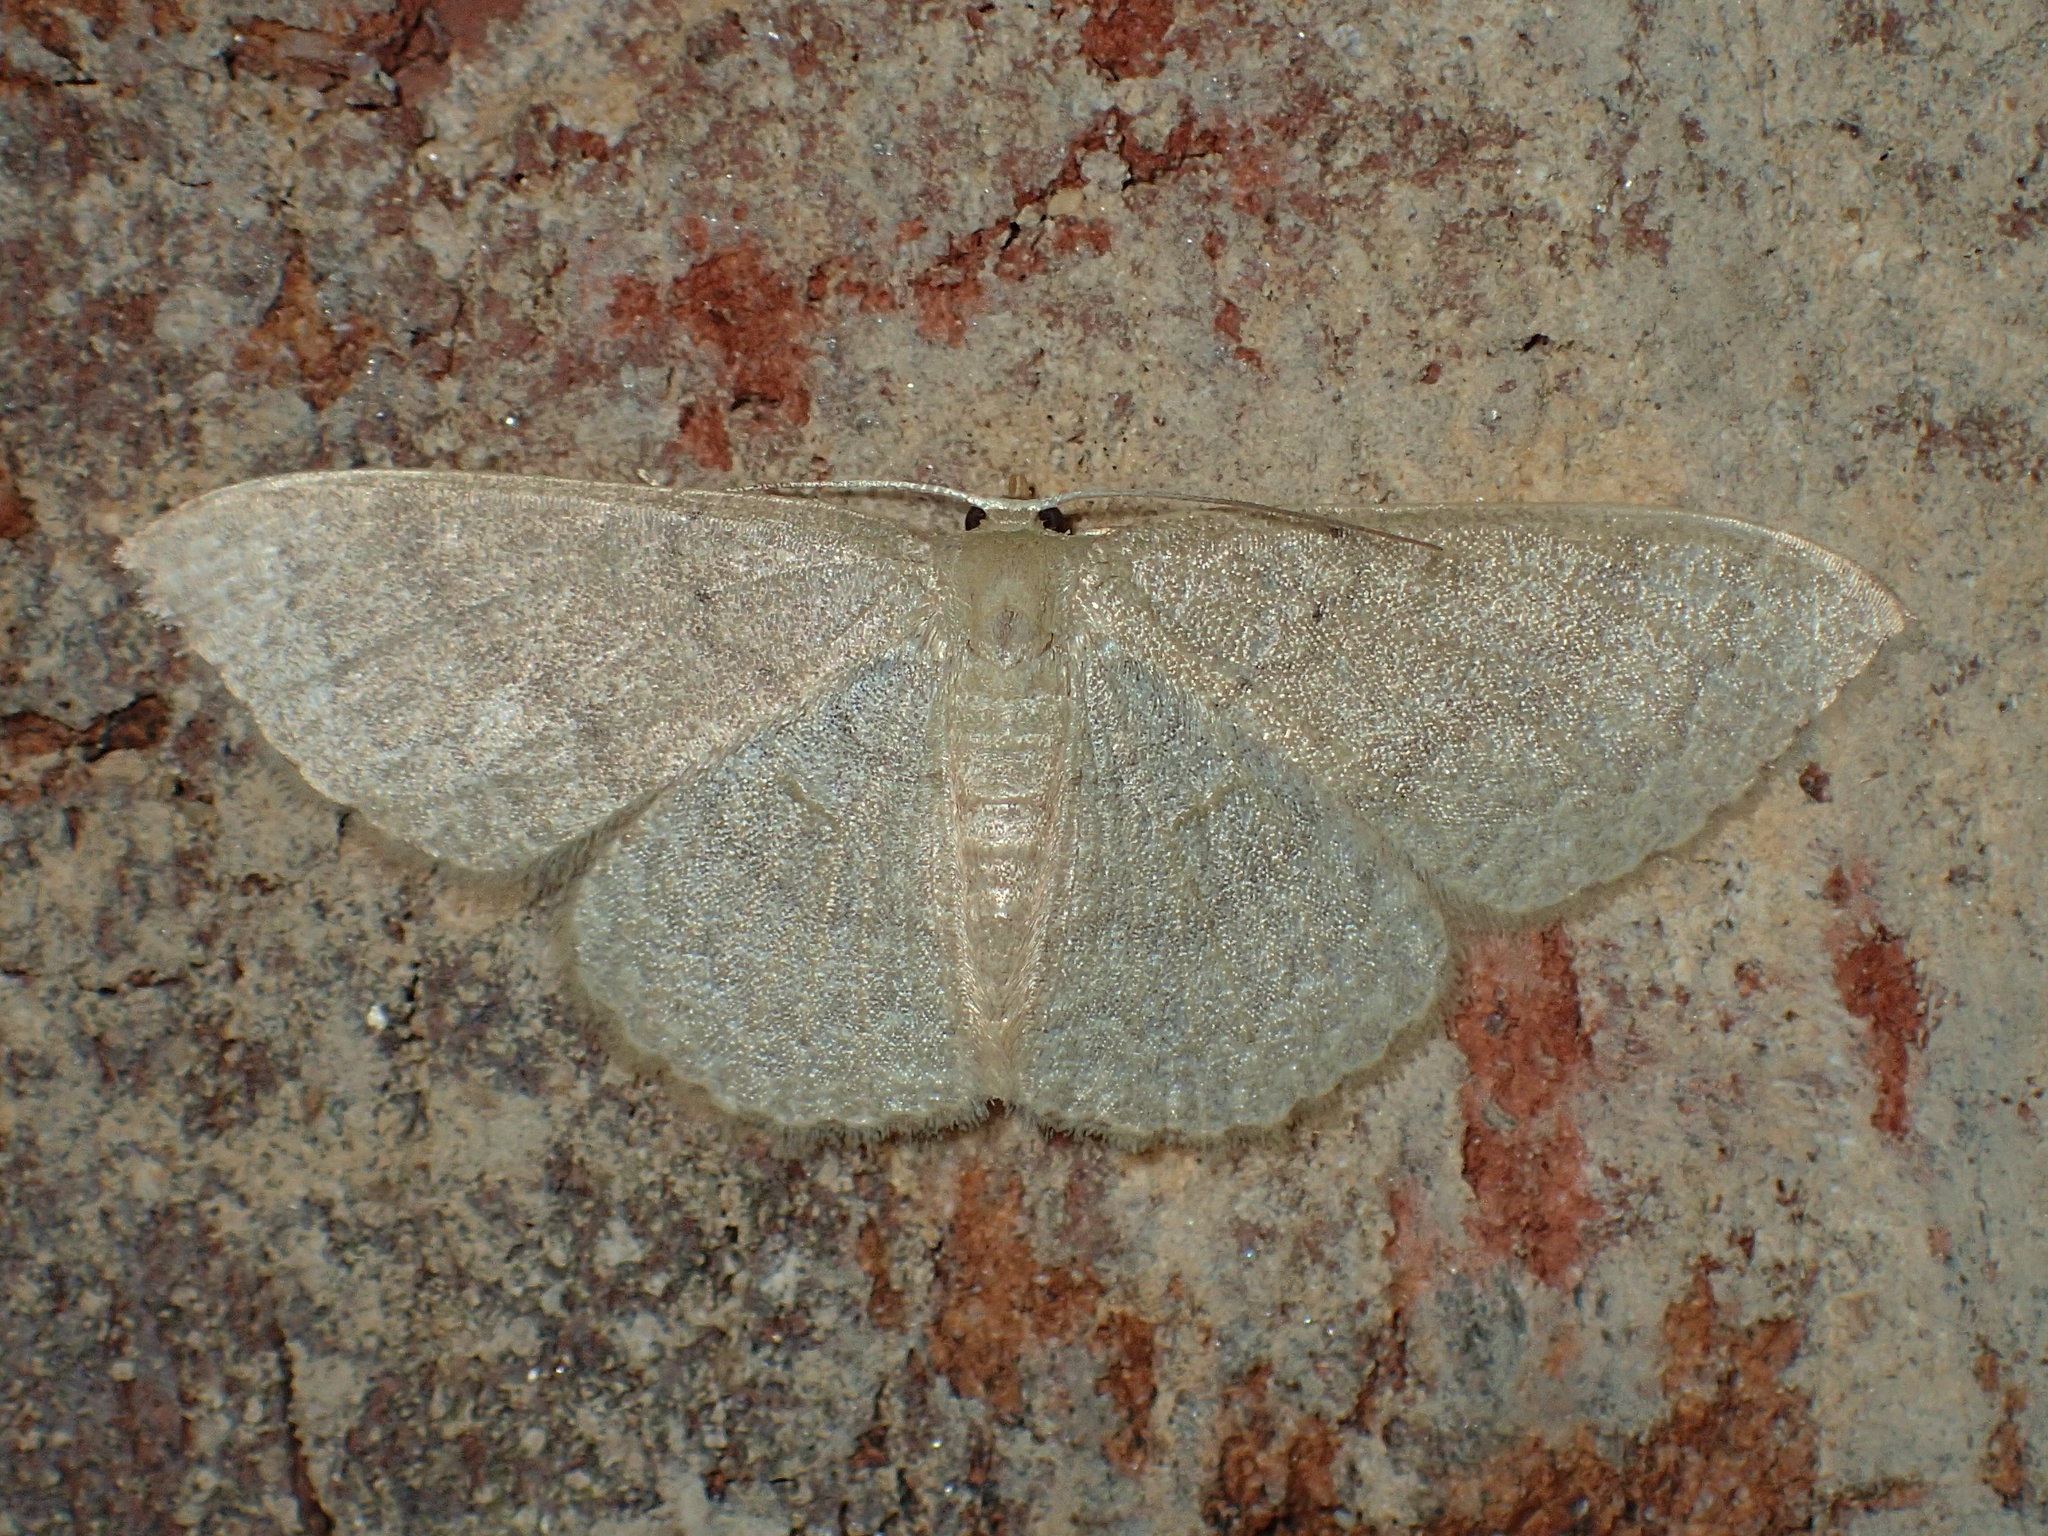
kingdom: Animalia
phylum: Arthropoda
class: Insecta
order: Lepidoptera
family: Geometridae
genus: Pleuroprucha
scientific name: Pleuroprucha insulsaria
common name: Common tan wave
